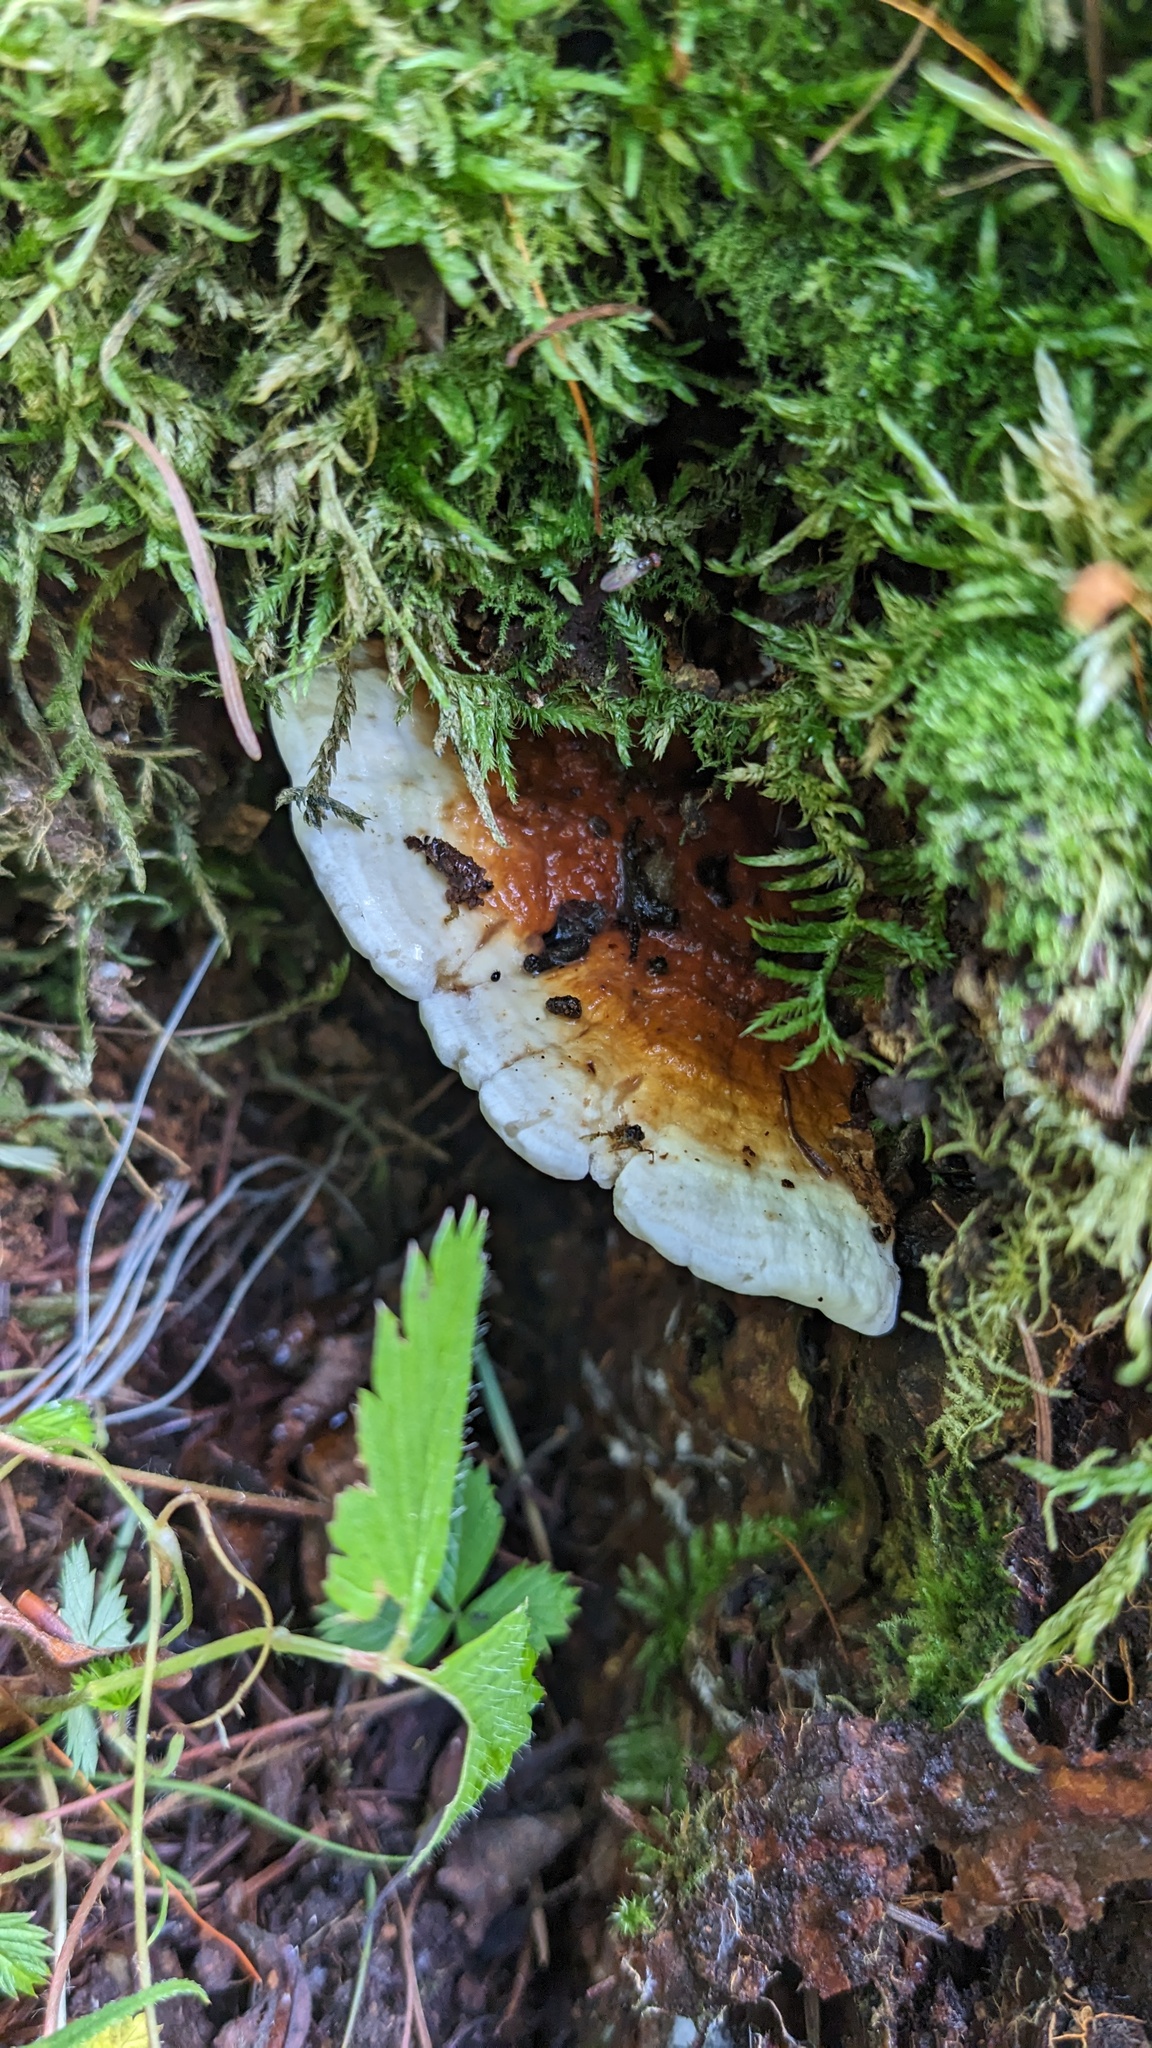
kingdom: Fungi
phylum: Basidiomycota
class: Agaricomycetes
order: Russulales
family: Bondarzewiaceae
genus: Heterobasidion
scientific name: Heterobasidion orientale
